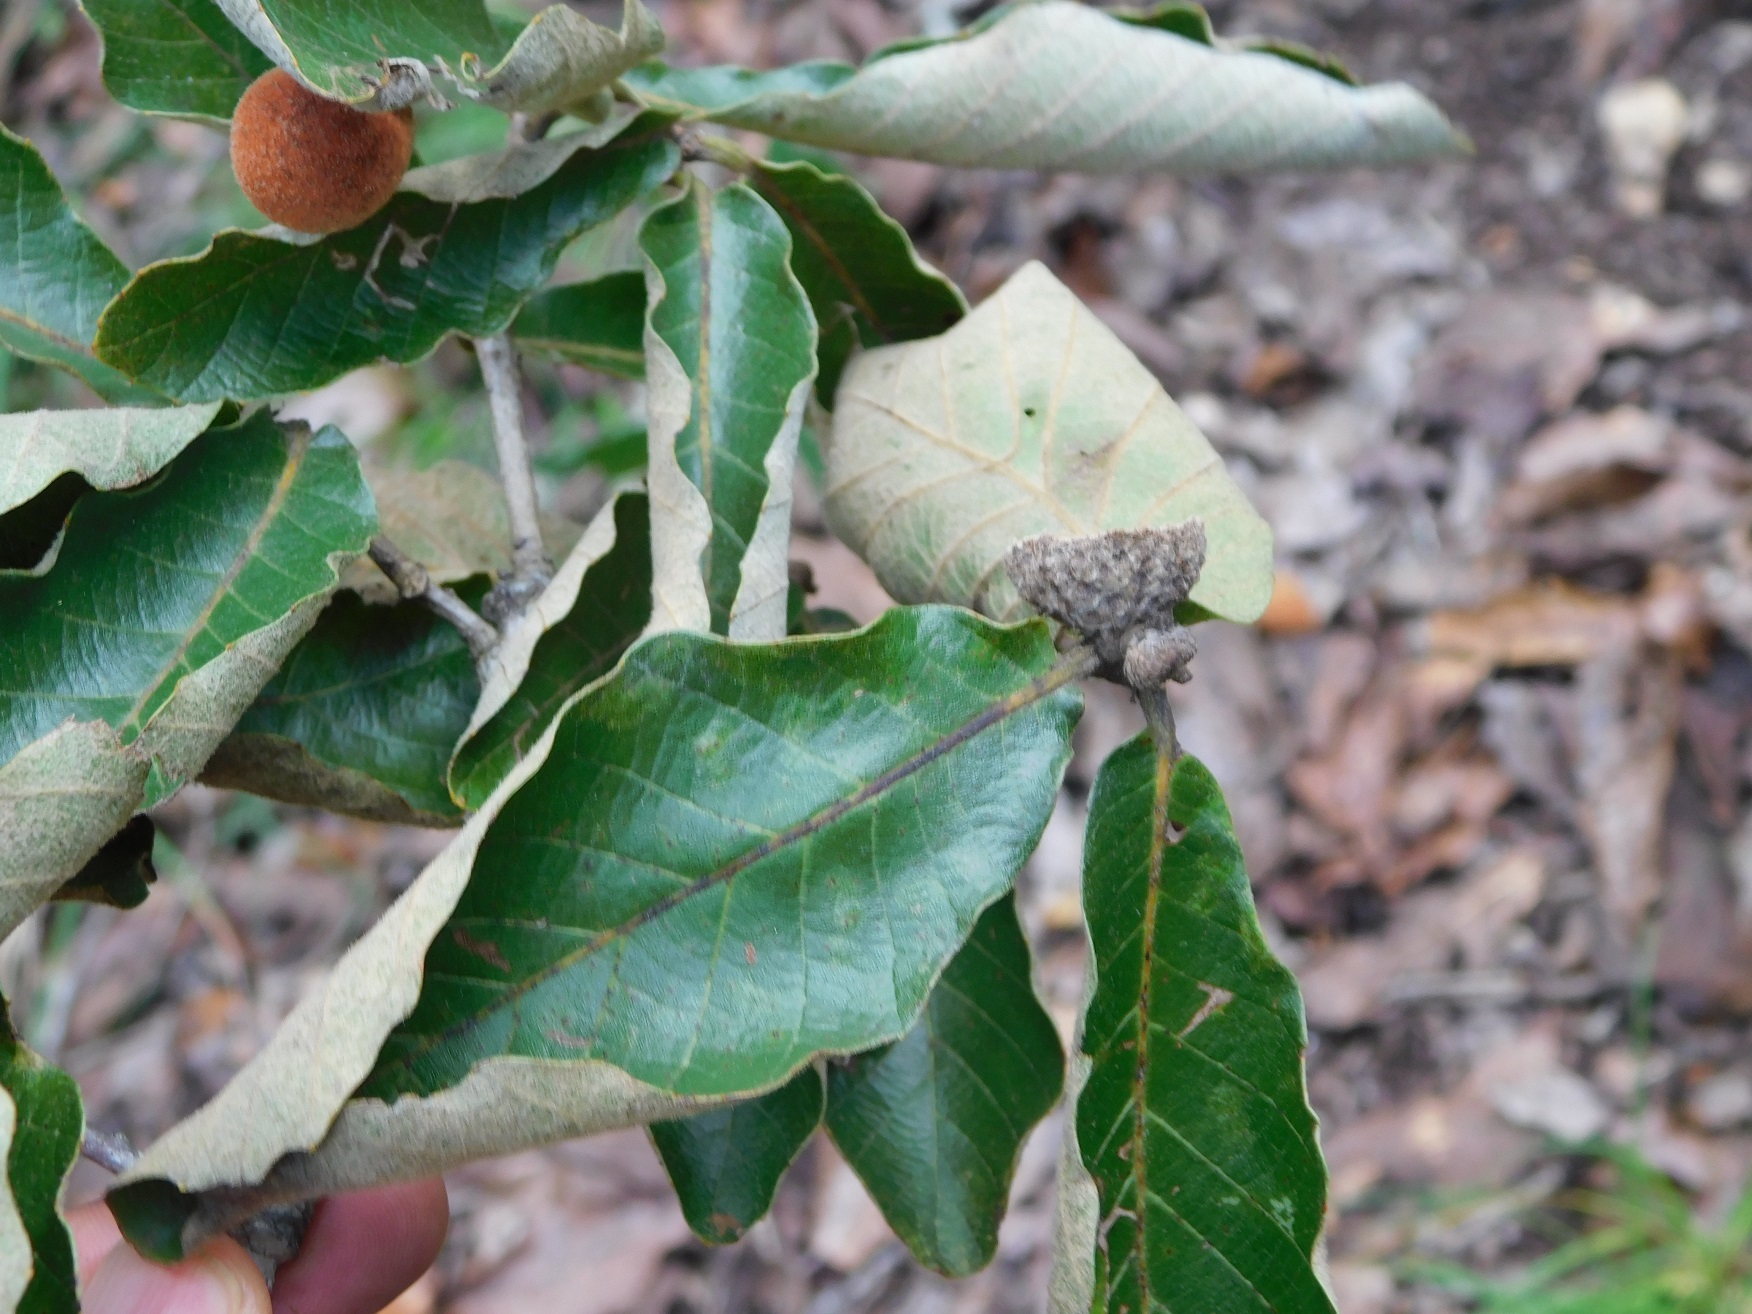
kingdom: Plantae
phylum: Tracheophyta
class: Magnoliopsida
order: Fagales
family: Fagaceae
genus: Quercus
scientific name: Quercus segoviensis
